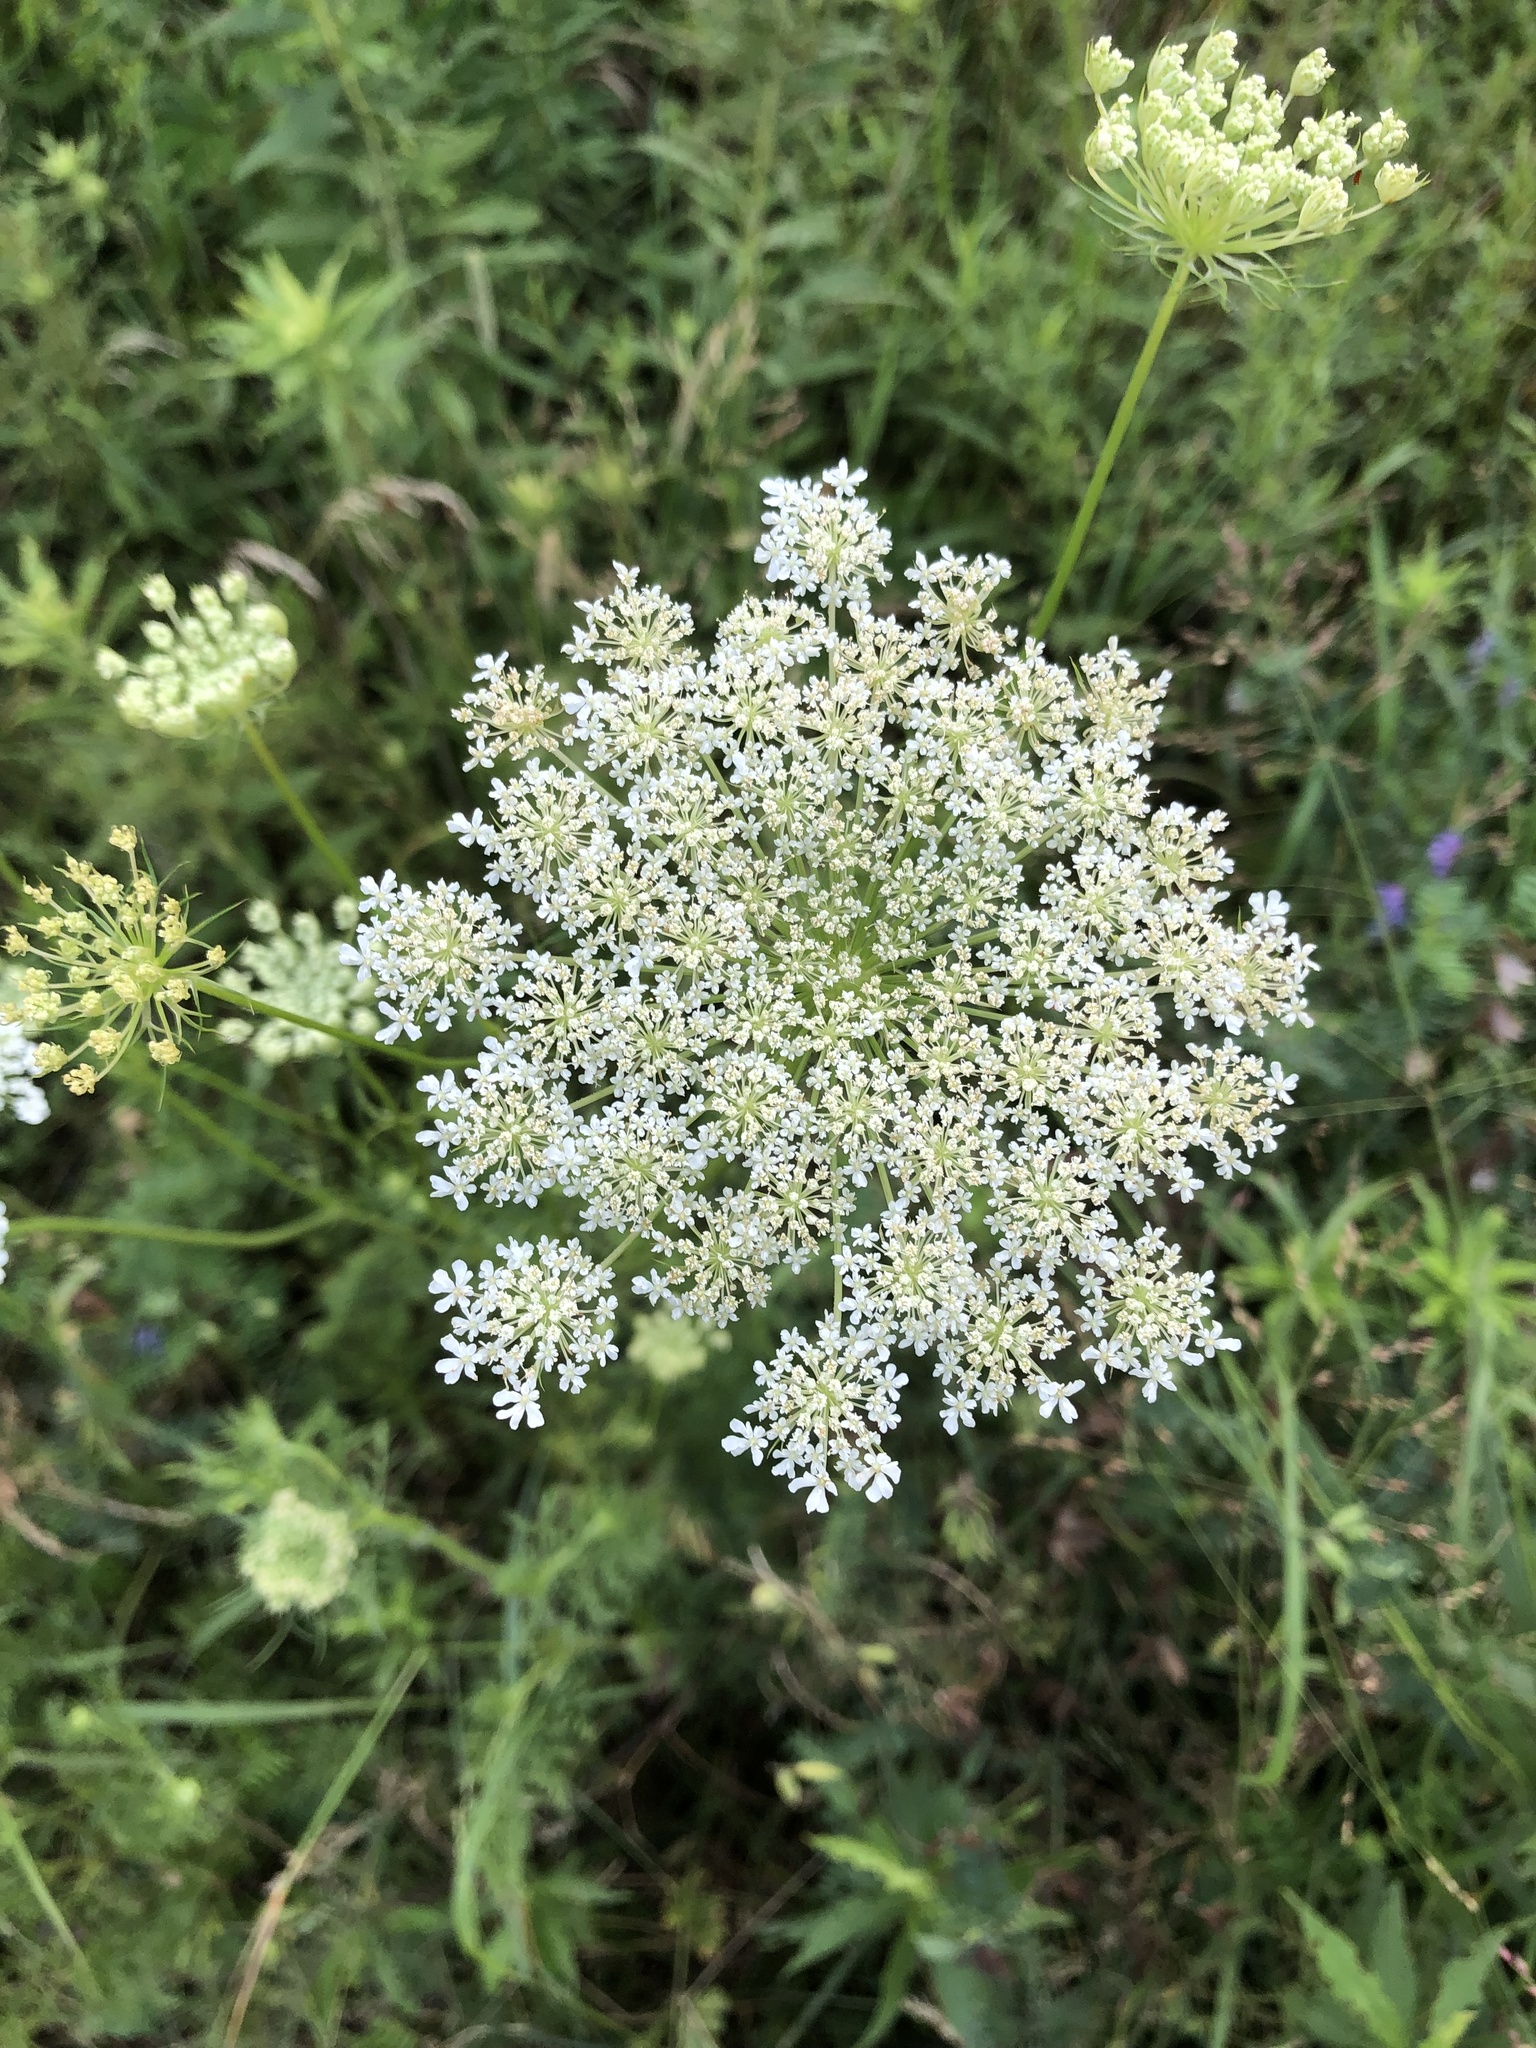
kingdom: Plantae
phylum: Tracheophyta
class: Magnoliopsida
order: Apiales
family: Apiaceae
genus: Daucus
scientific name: Daucus carota
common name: Wild carrot
